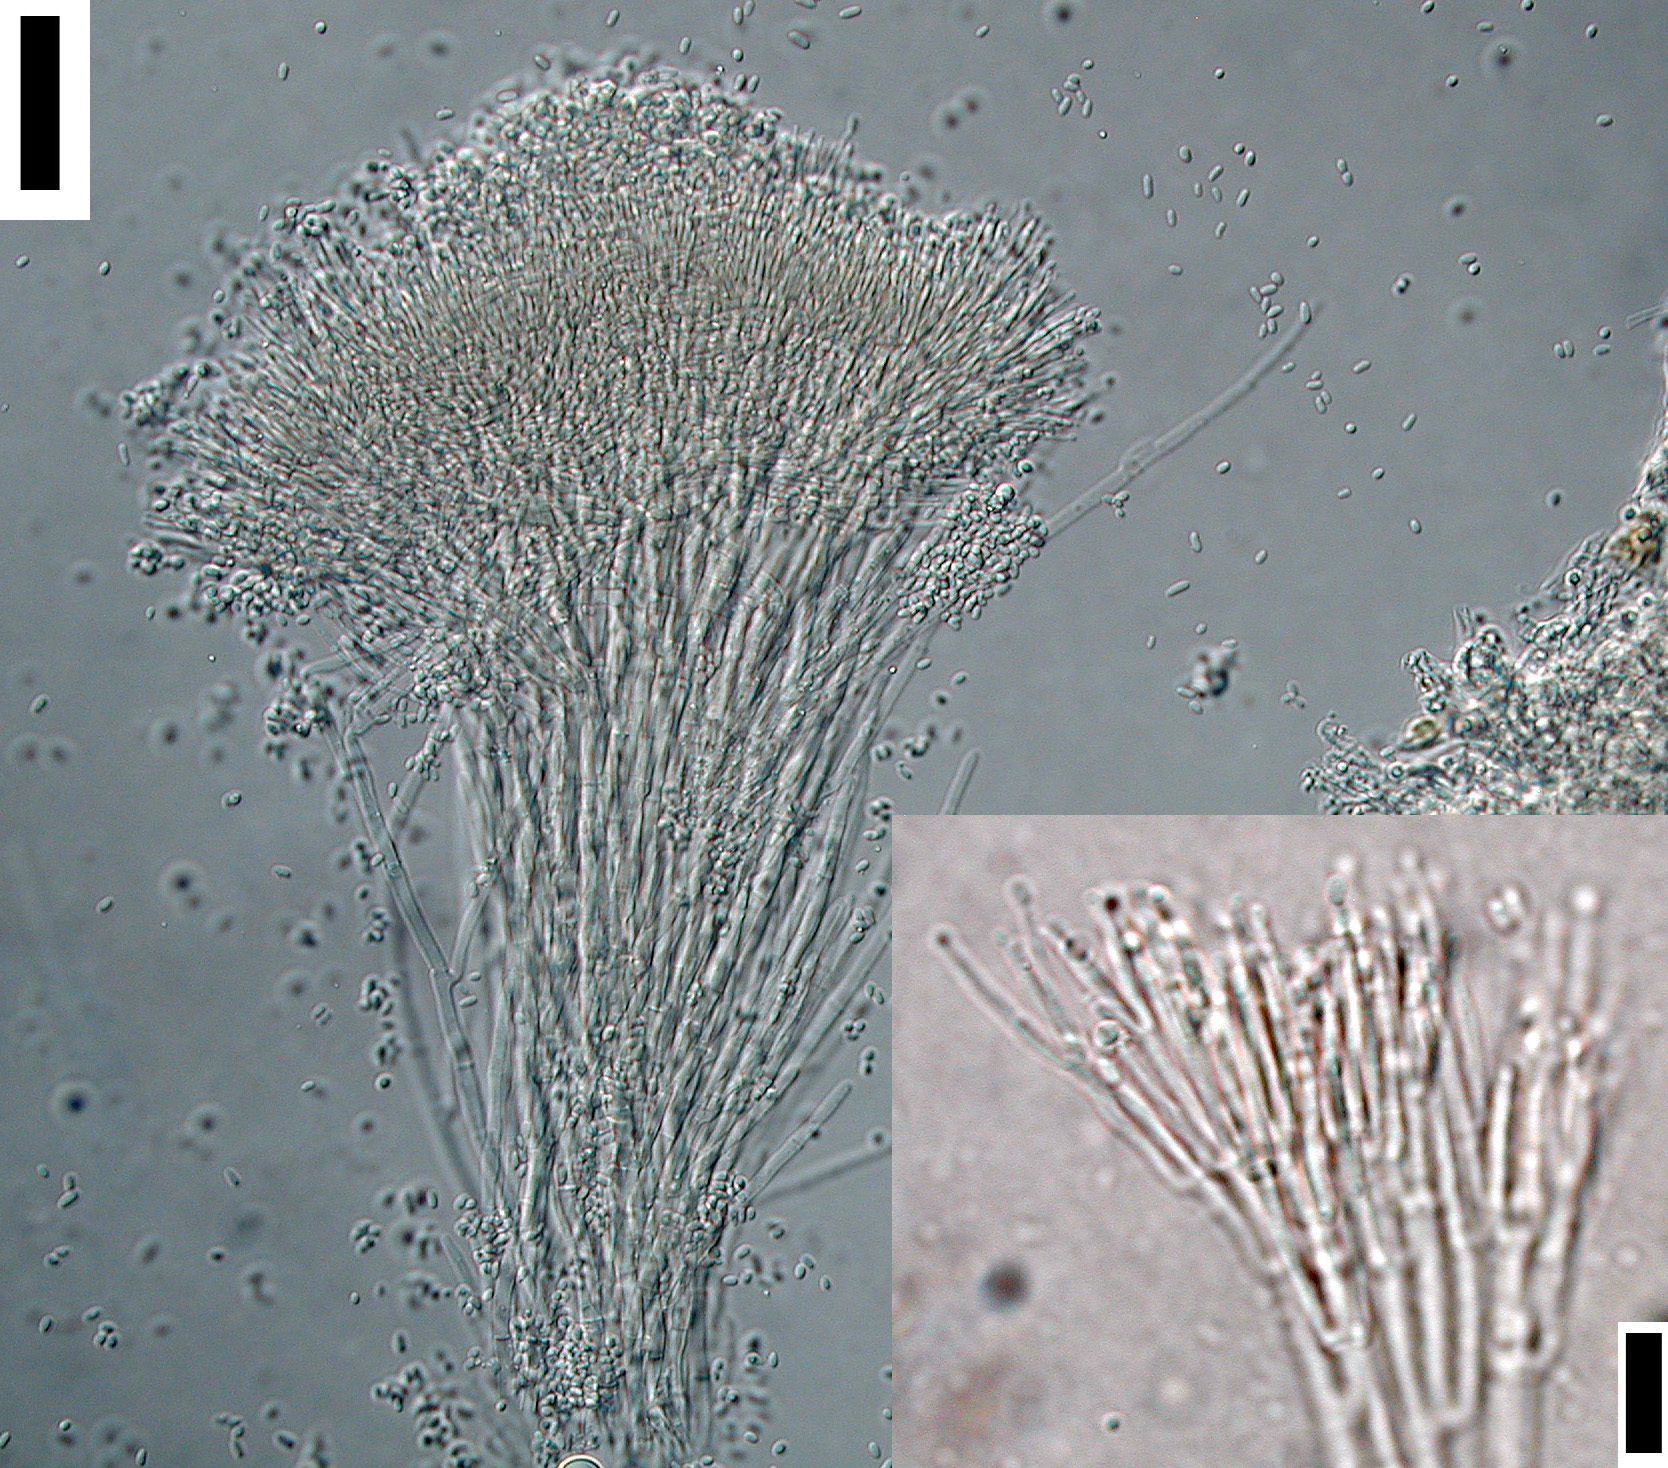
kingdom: Fungi
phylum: Ascomycota
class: Sordariomycetes
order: Hypocreales
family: Hypocreaceae
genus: Sphaerostilbella
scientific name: Sphaerostilbella novae-zelandiae
